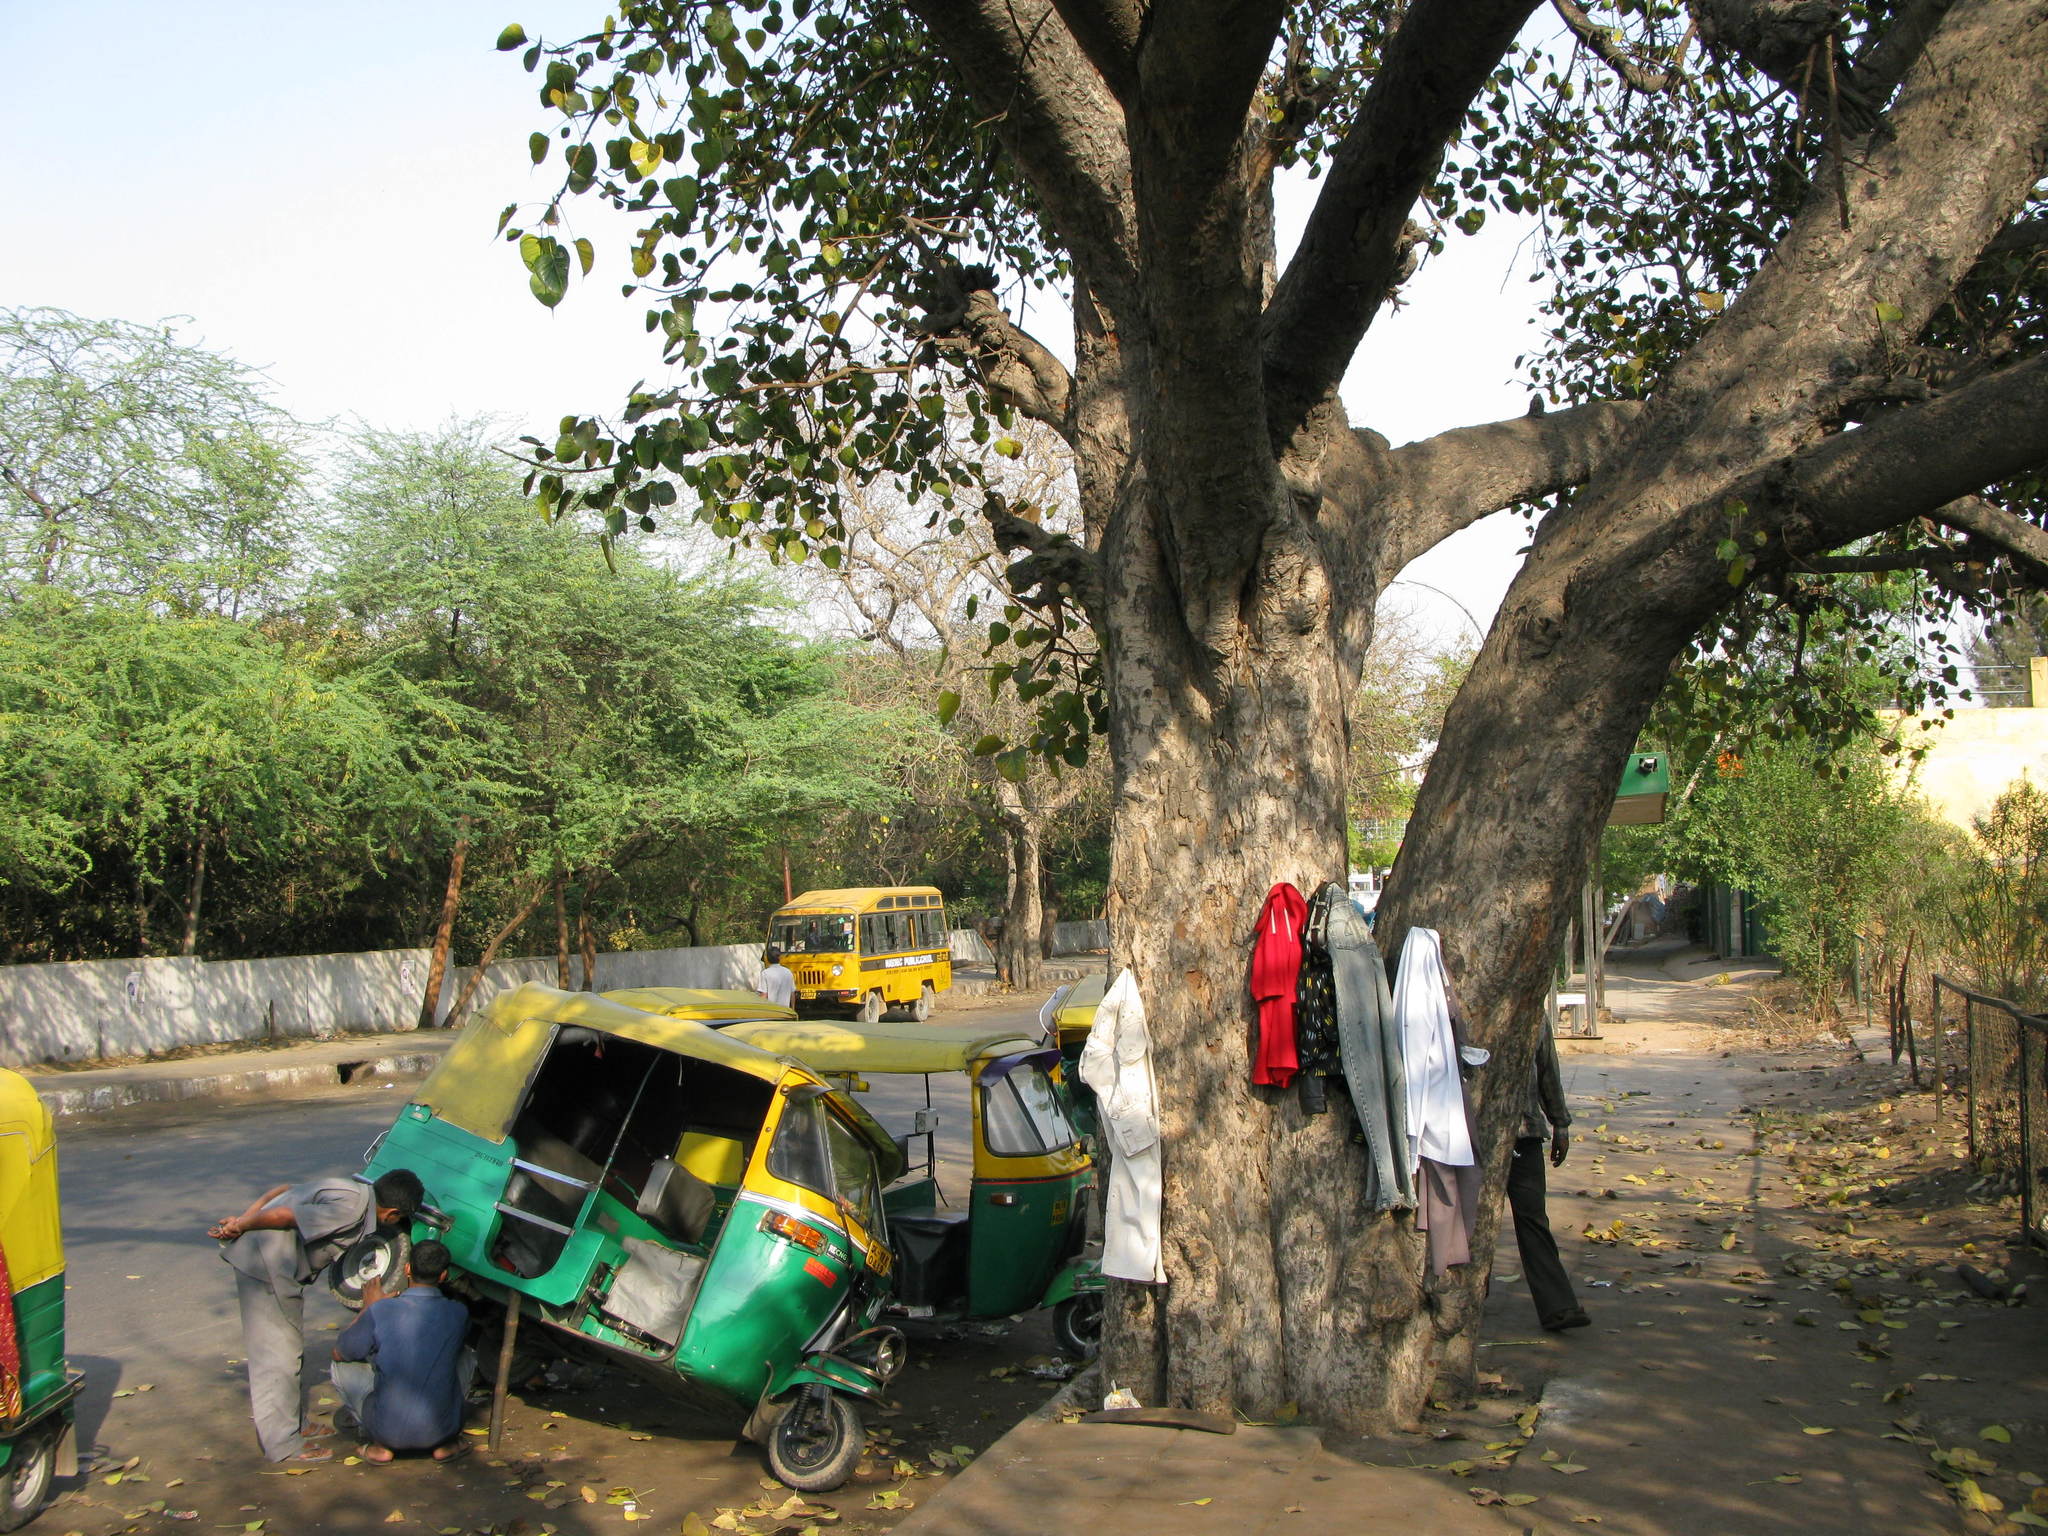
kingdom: Plantae
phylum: Tracheophyta
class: Magnoliopsida
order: Rosales
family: Moraceae
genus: Ficus
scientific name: Ficus religiosa
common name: Bodhi tree
